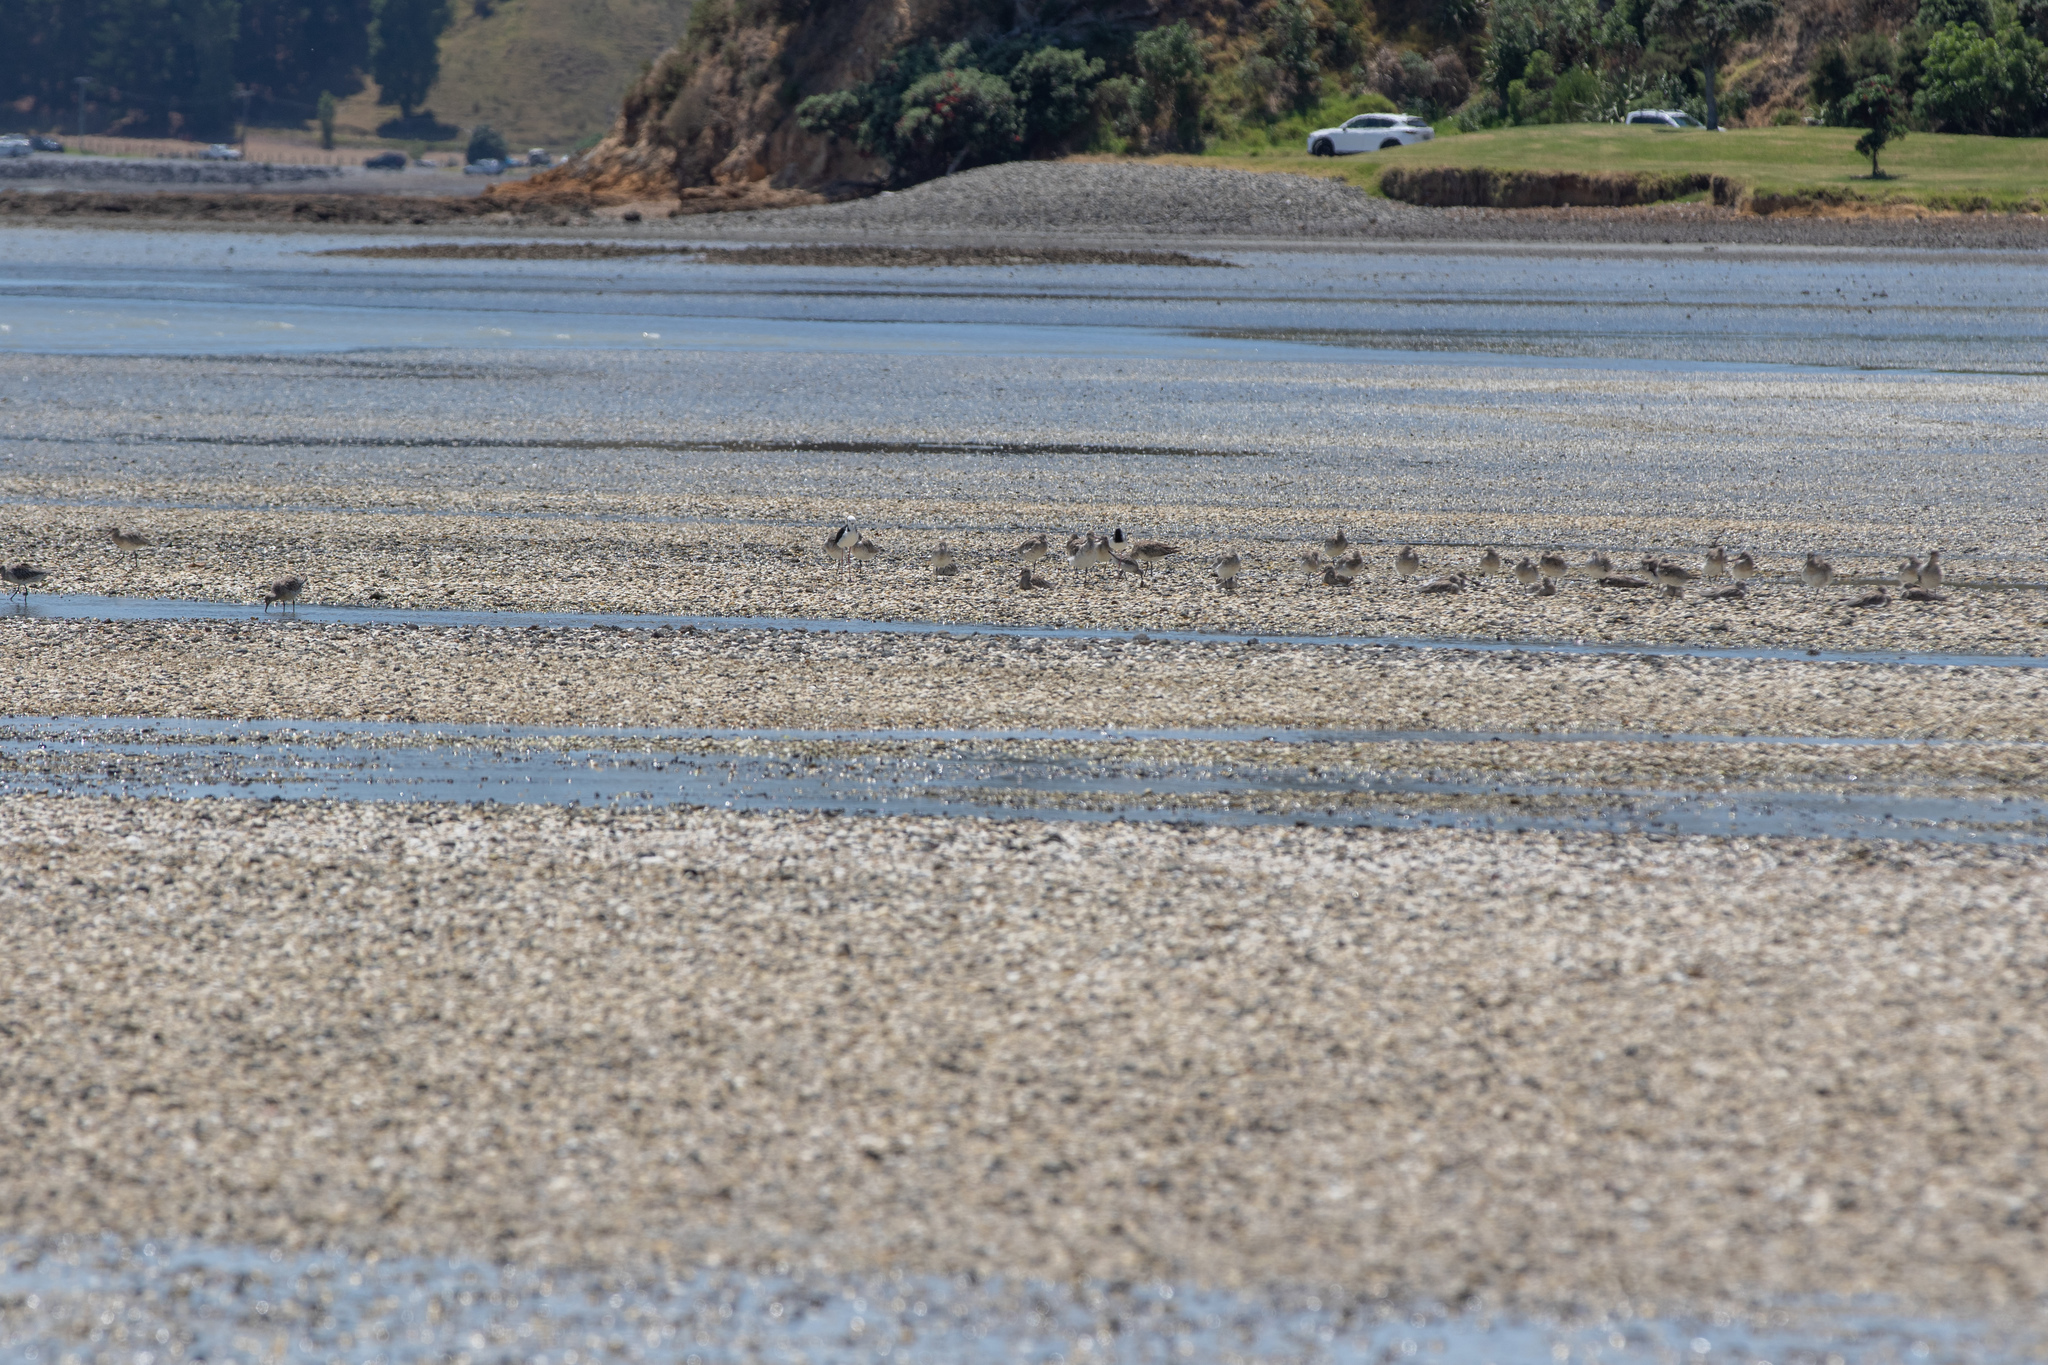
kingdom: Animalia
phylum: Chordata
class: Aves
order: Charadriiformes
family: Scolopacidae
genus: Limosa
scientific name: Limosa lapponica
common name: Bar-tailed godwit
